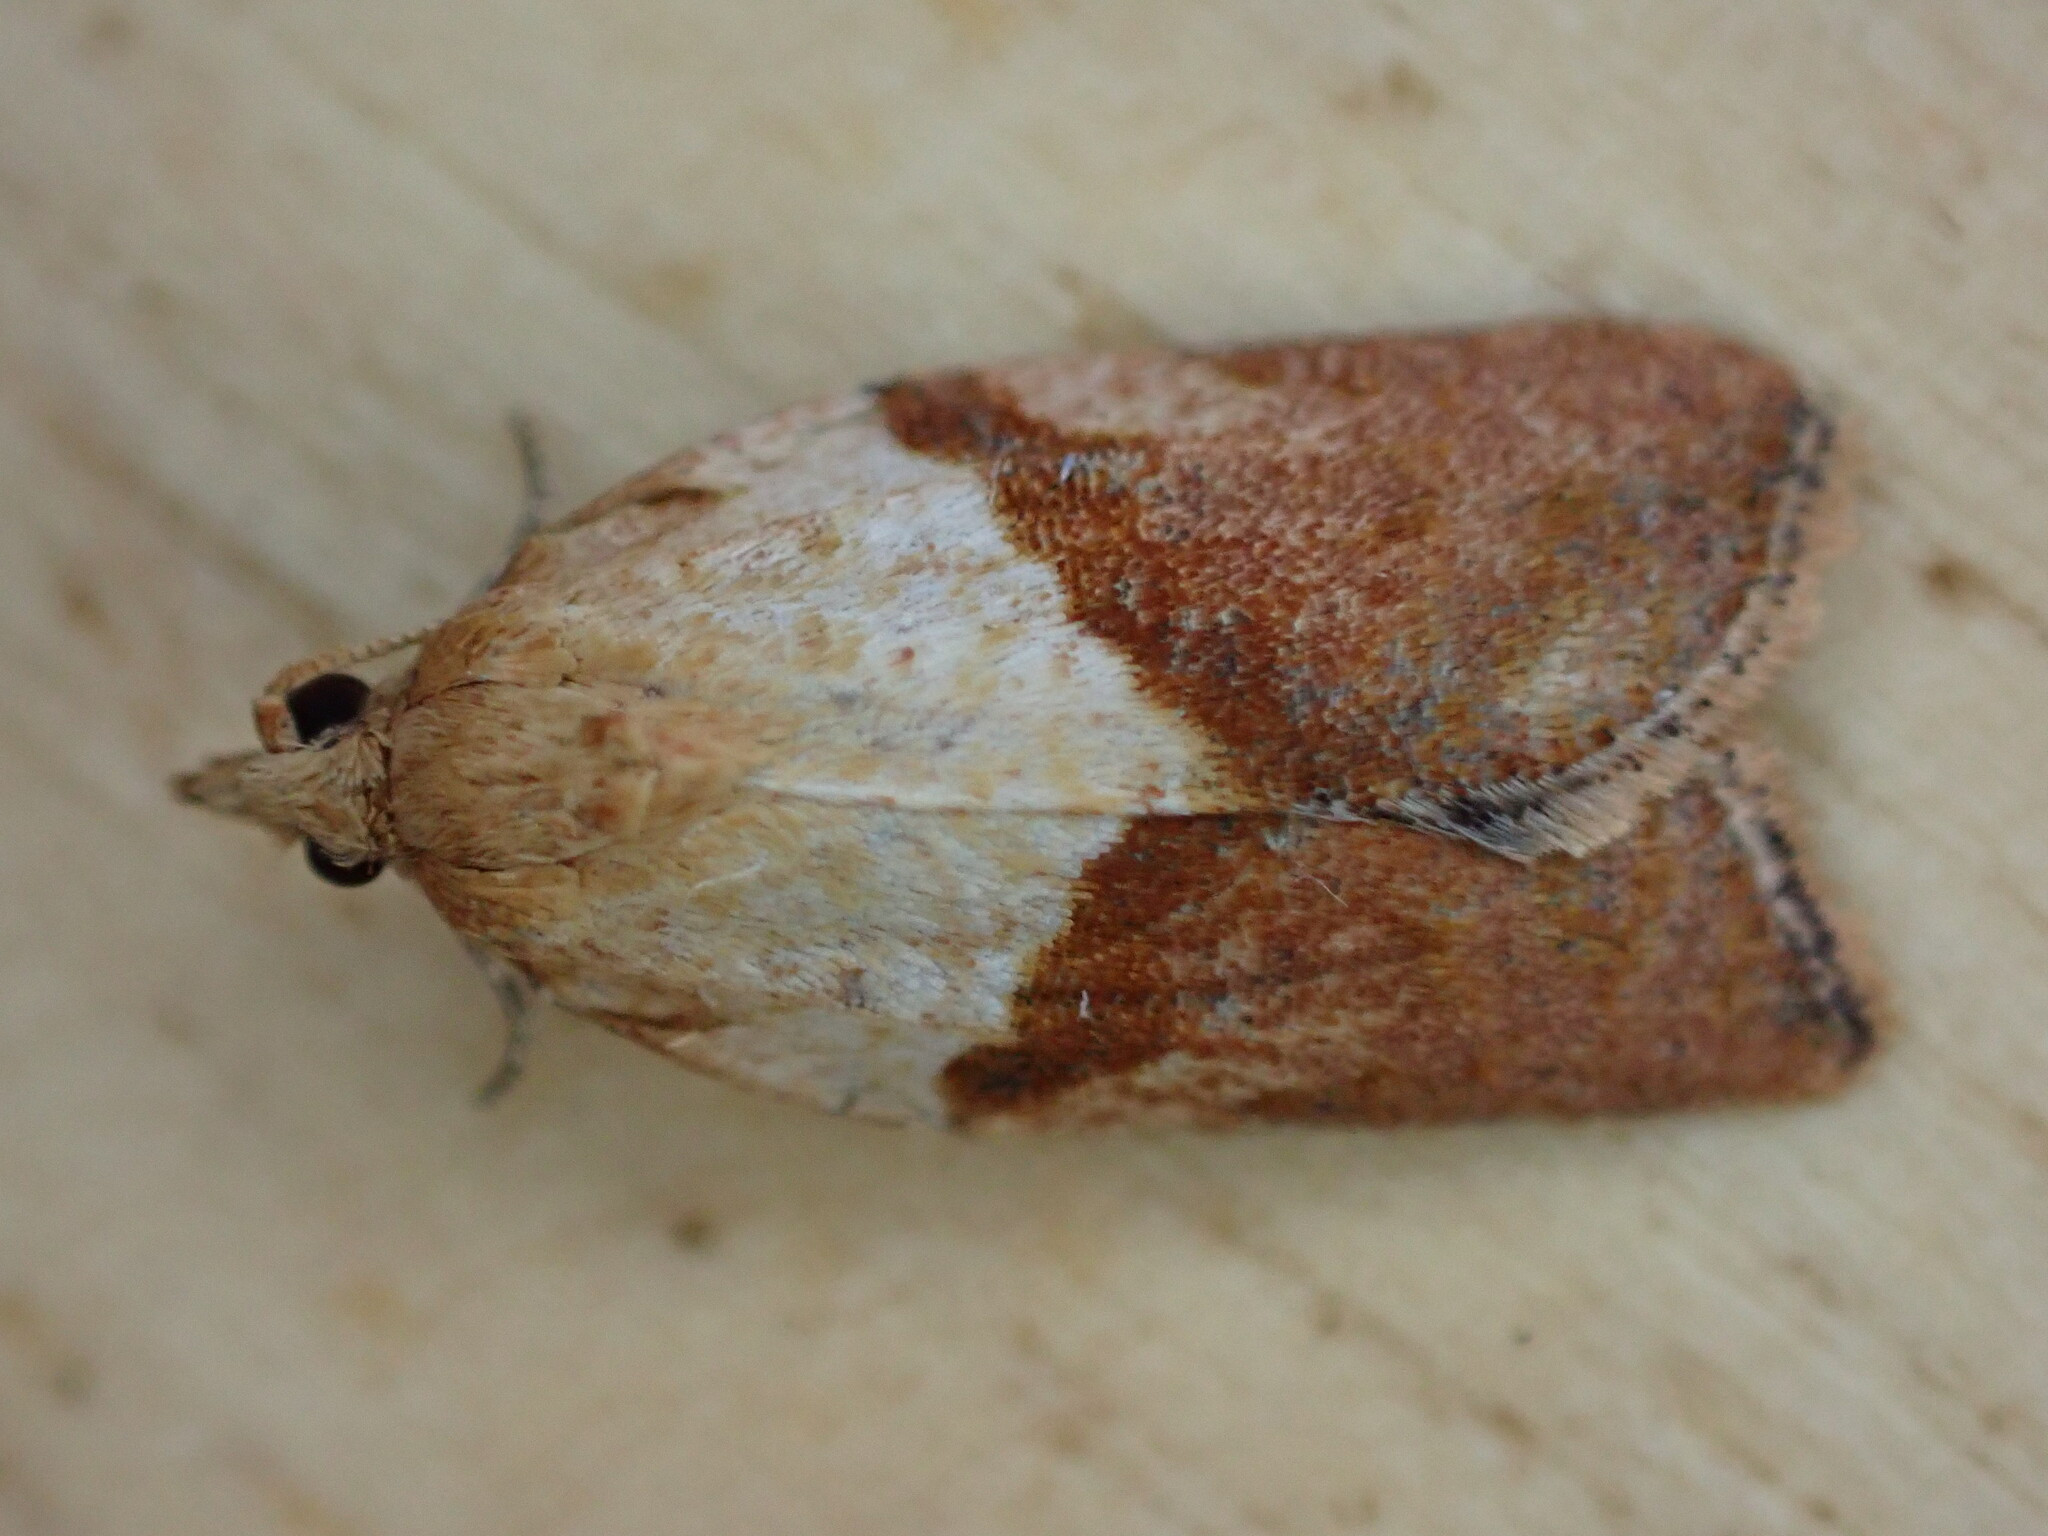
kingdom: Animalia
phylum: Arthropoda
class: Insecta
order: Lepidoptera
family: Tortricidae
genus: Epiphyas
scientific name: Epiphyas postvittana
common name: Light brown apple moth
